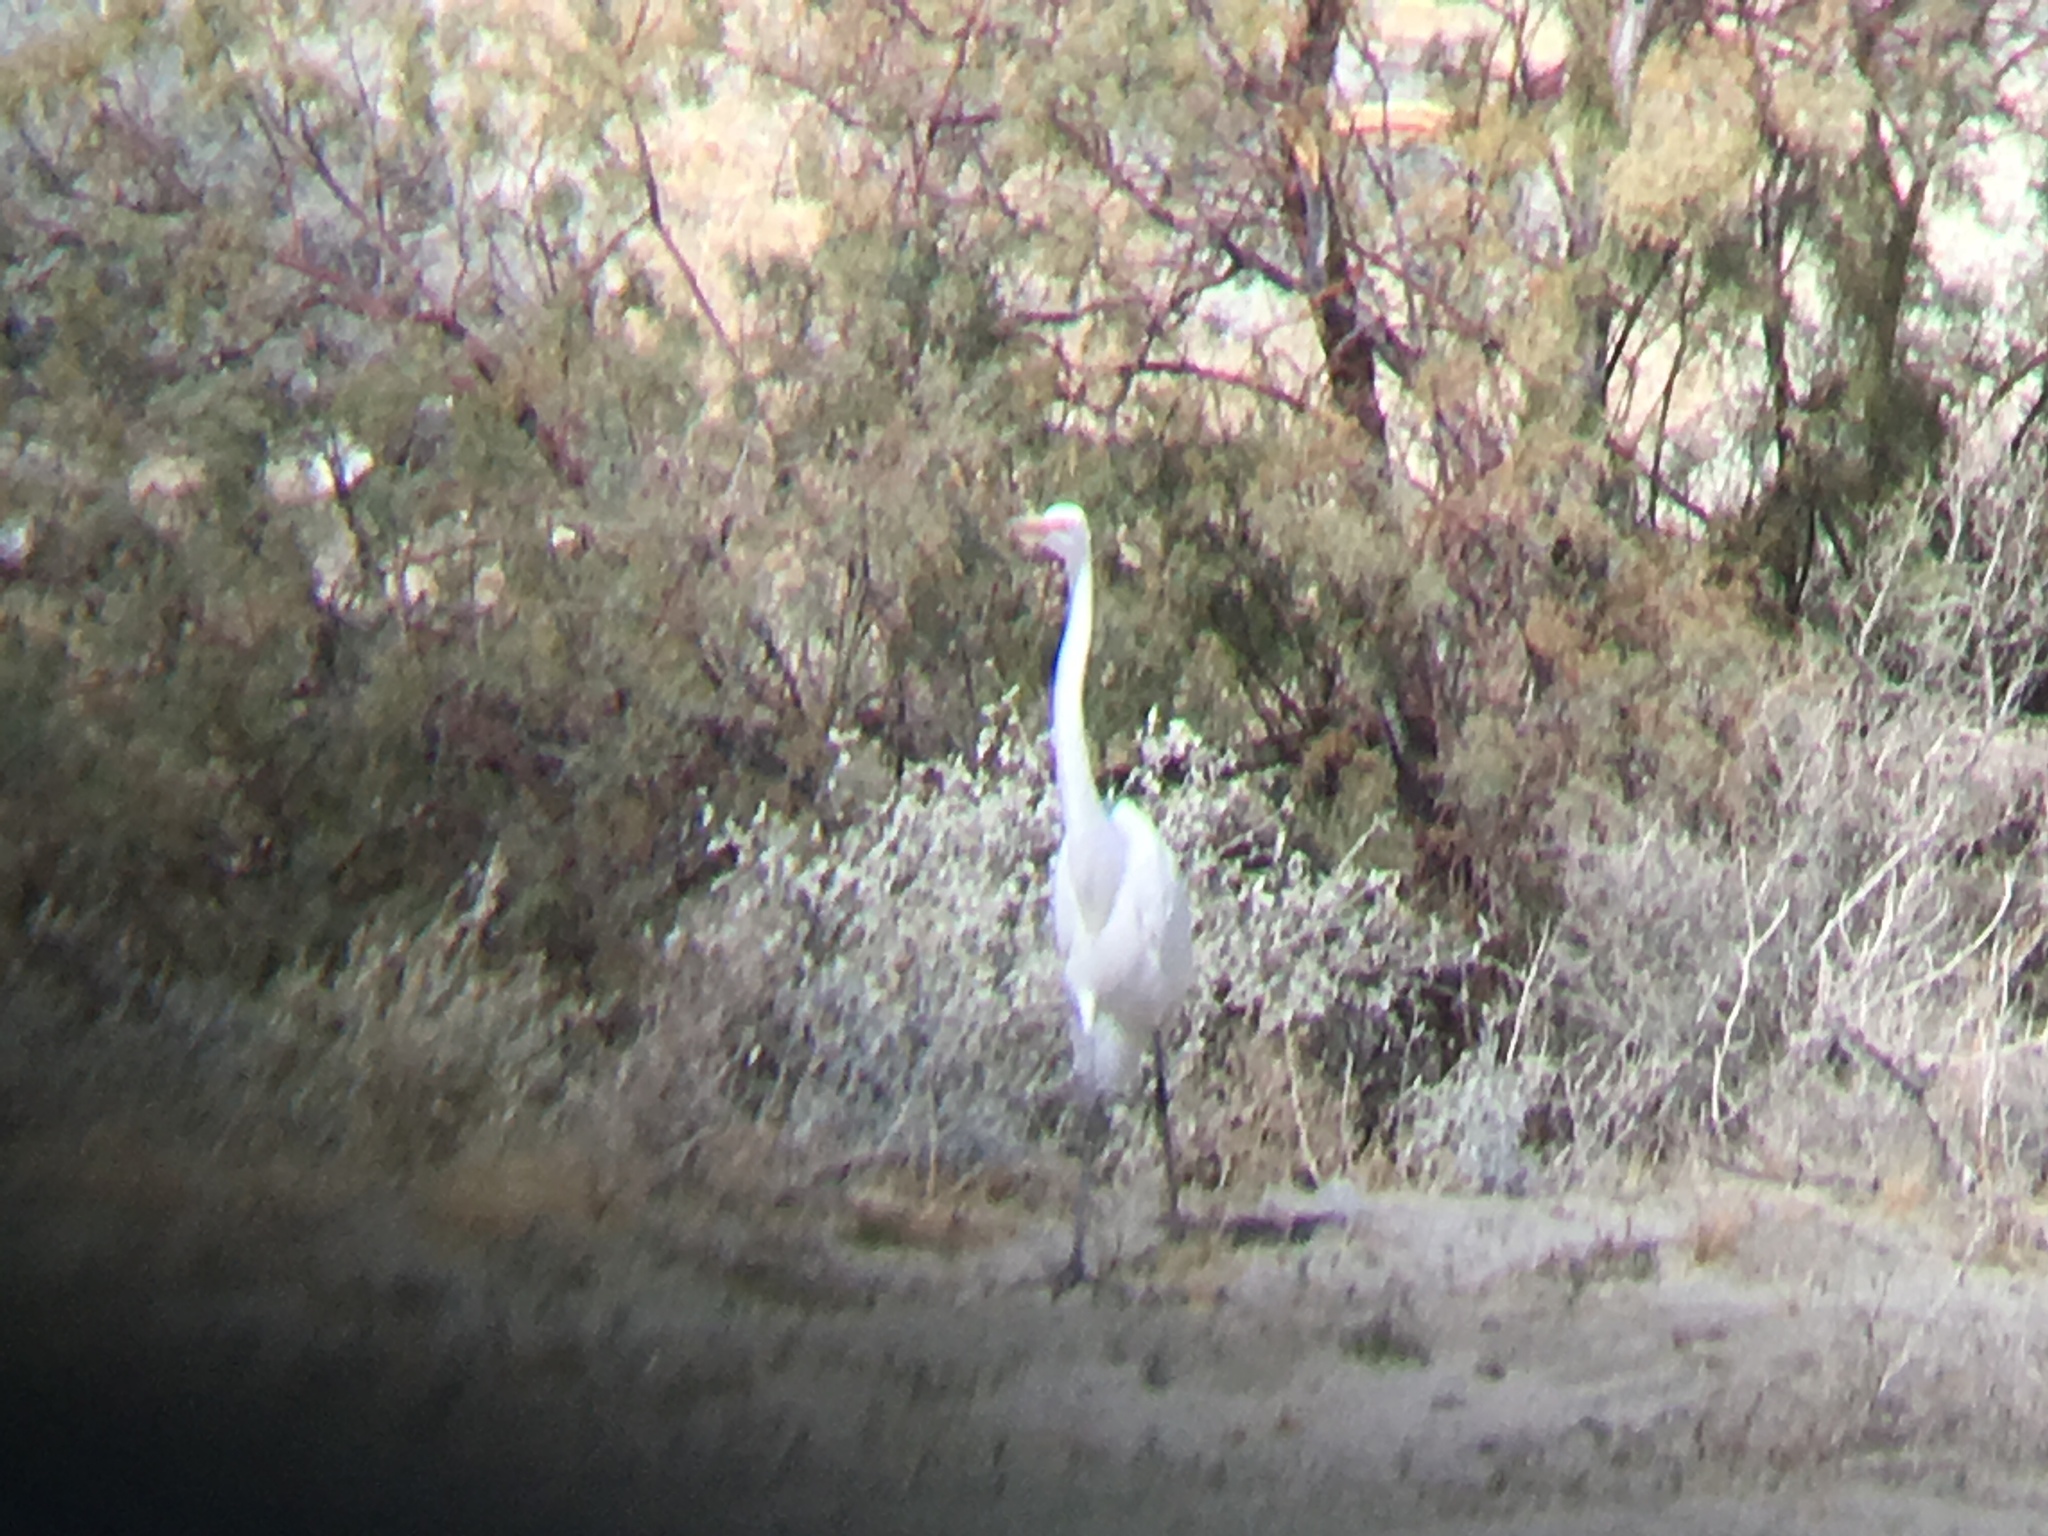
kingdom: Animalia
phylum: Chordata
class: Aves
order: Pelecaniformes
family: Ardeidae
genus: Ardea
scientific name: Ardea alba
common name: Great egret
